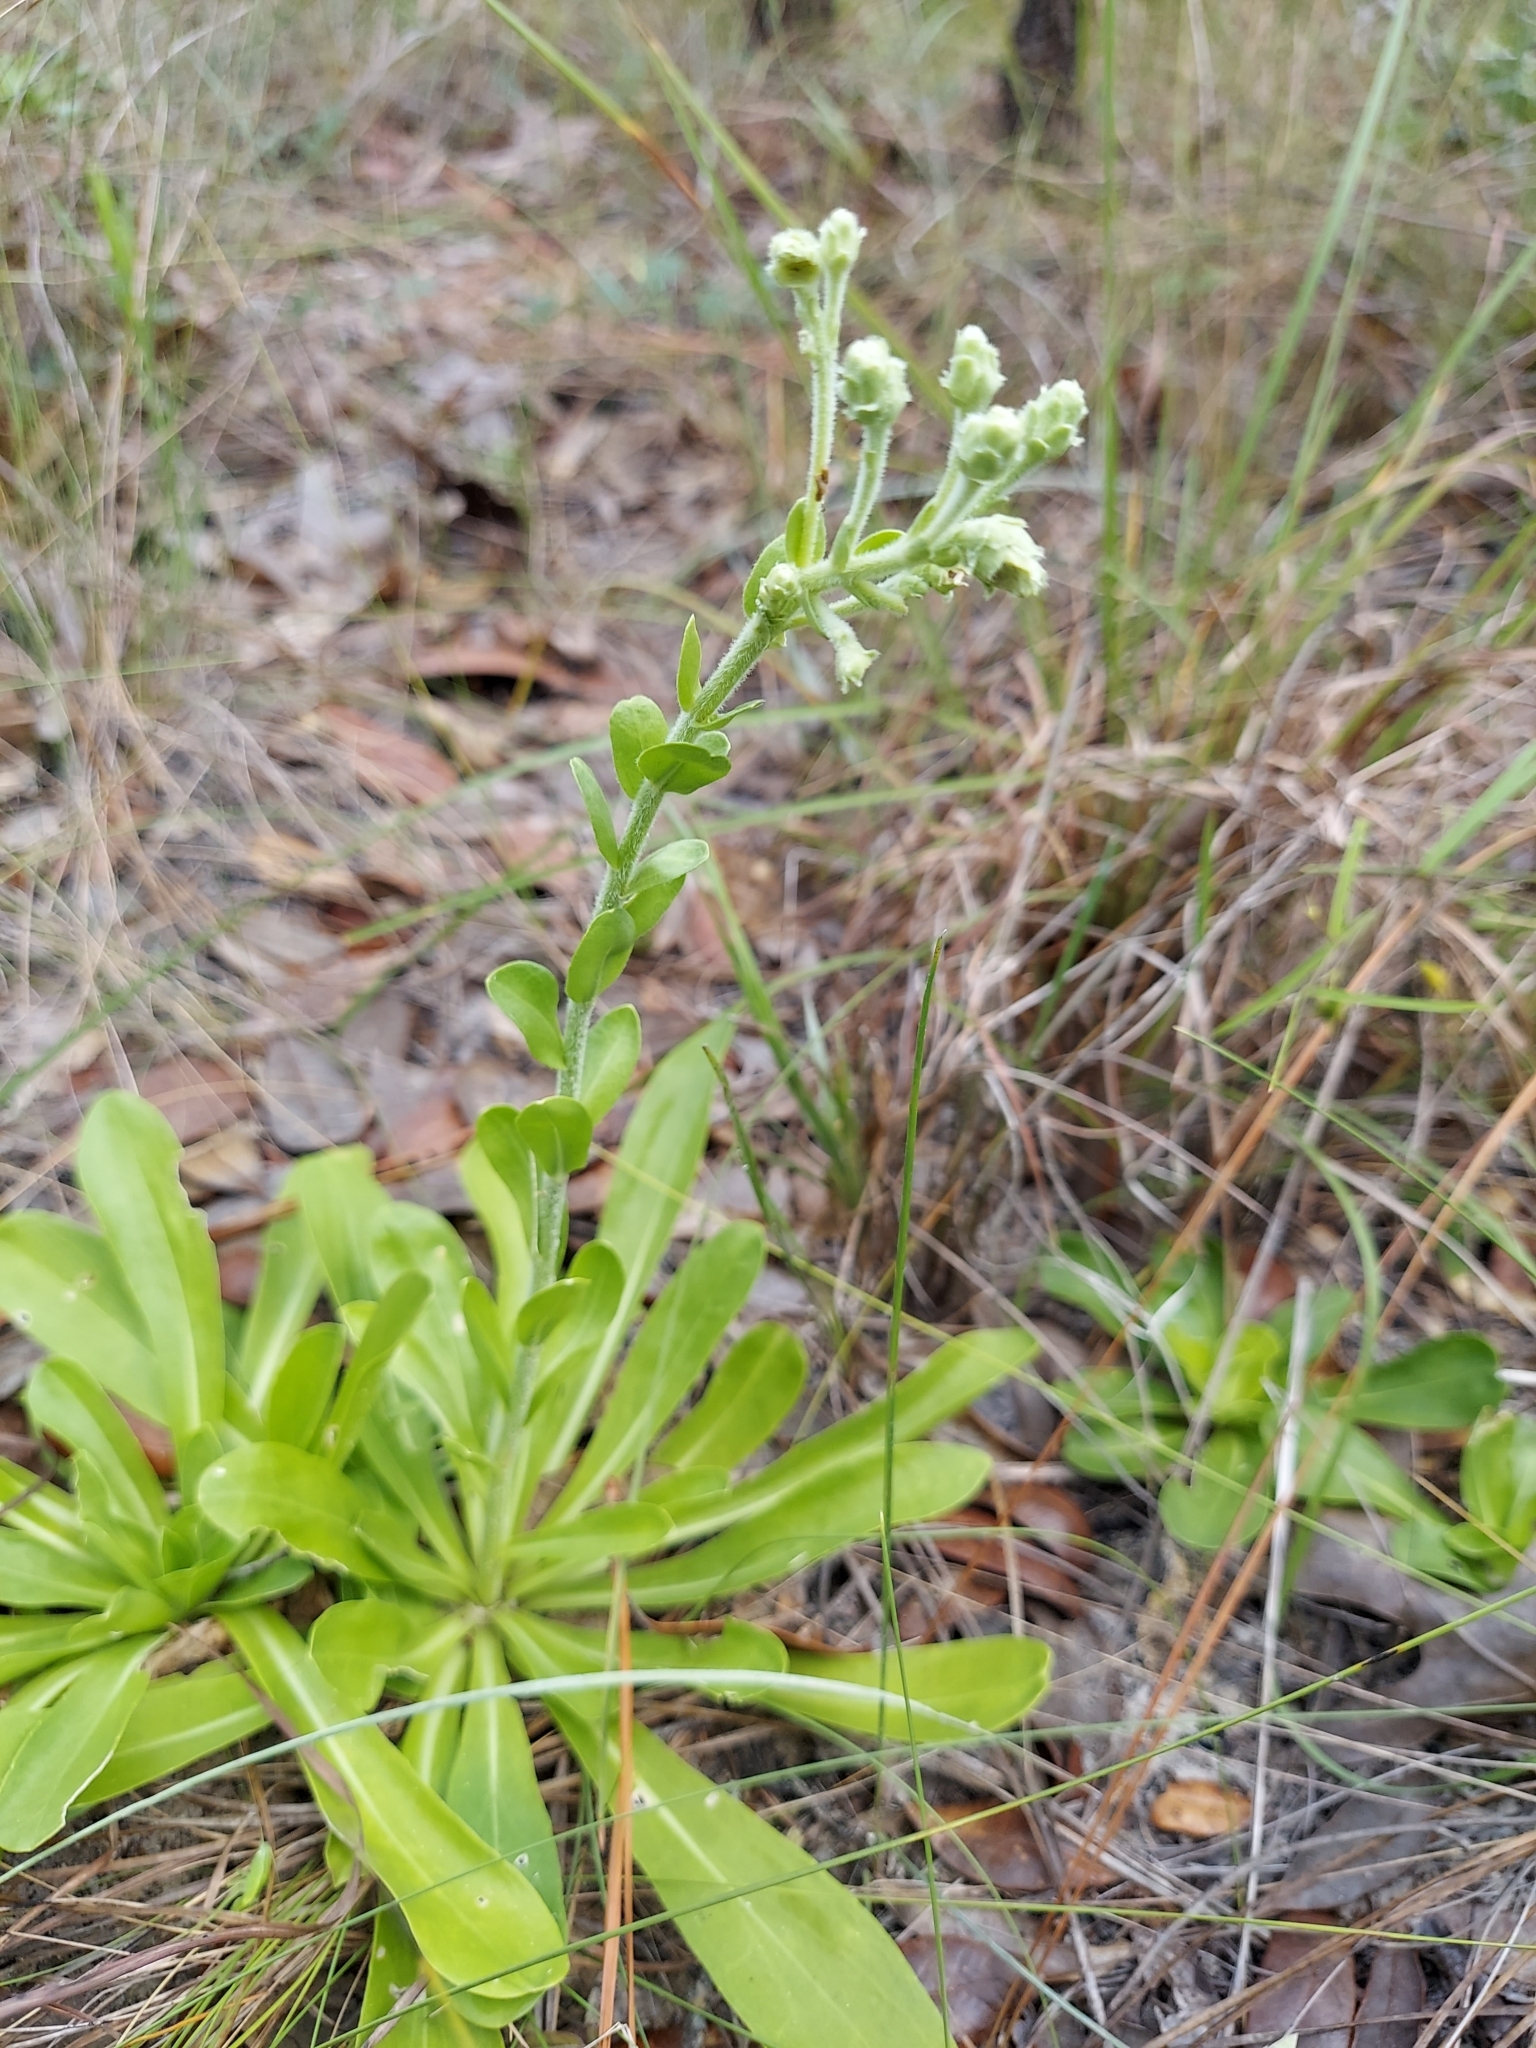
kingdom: Plantae
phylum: Tracheophyta
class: Magnoliopsida
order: Asterales
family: Asteraceae
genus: Carphephorus
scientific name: Carphephorus corymbosus
